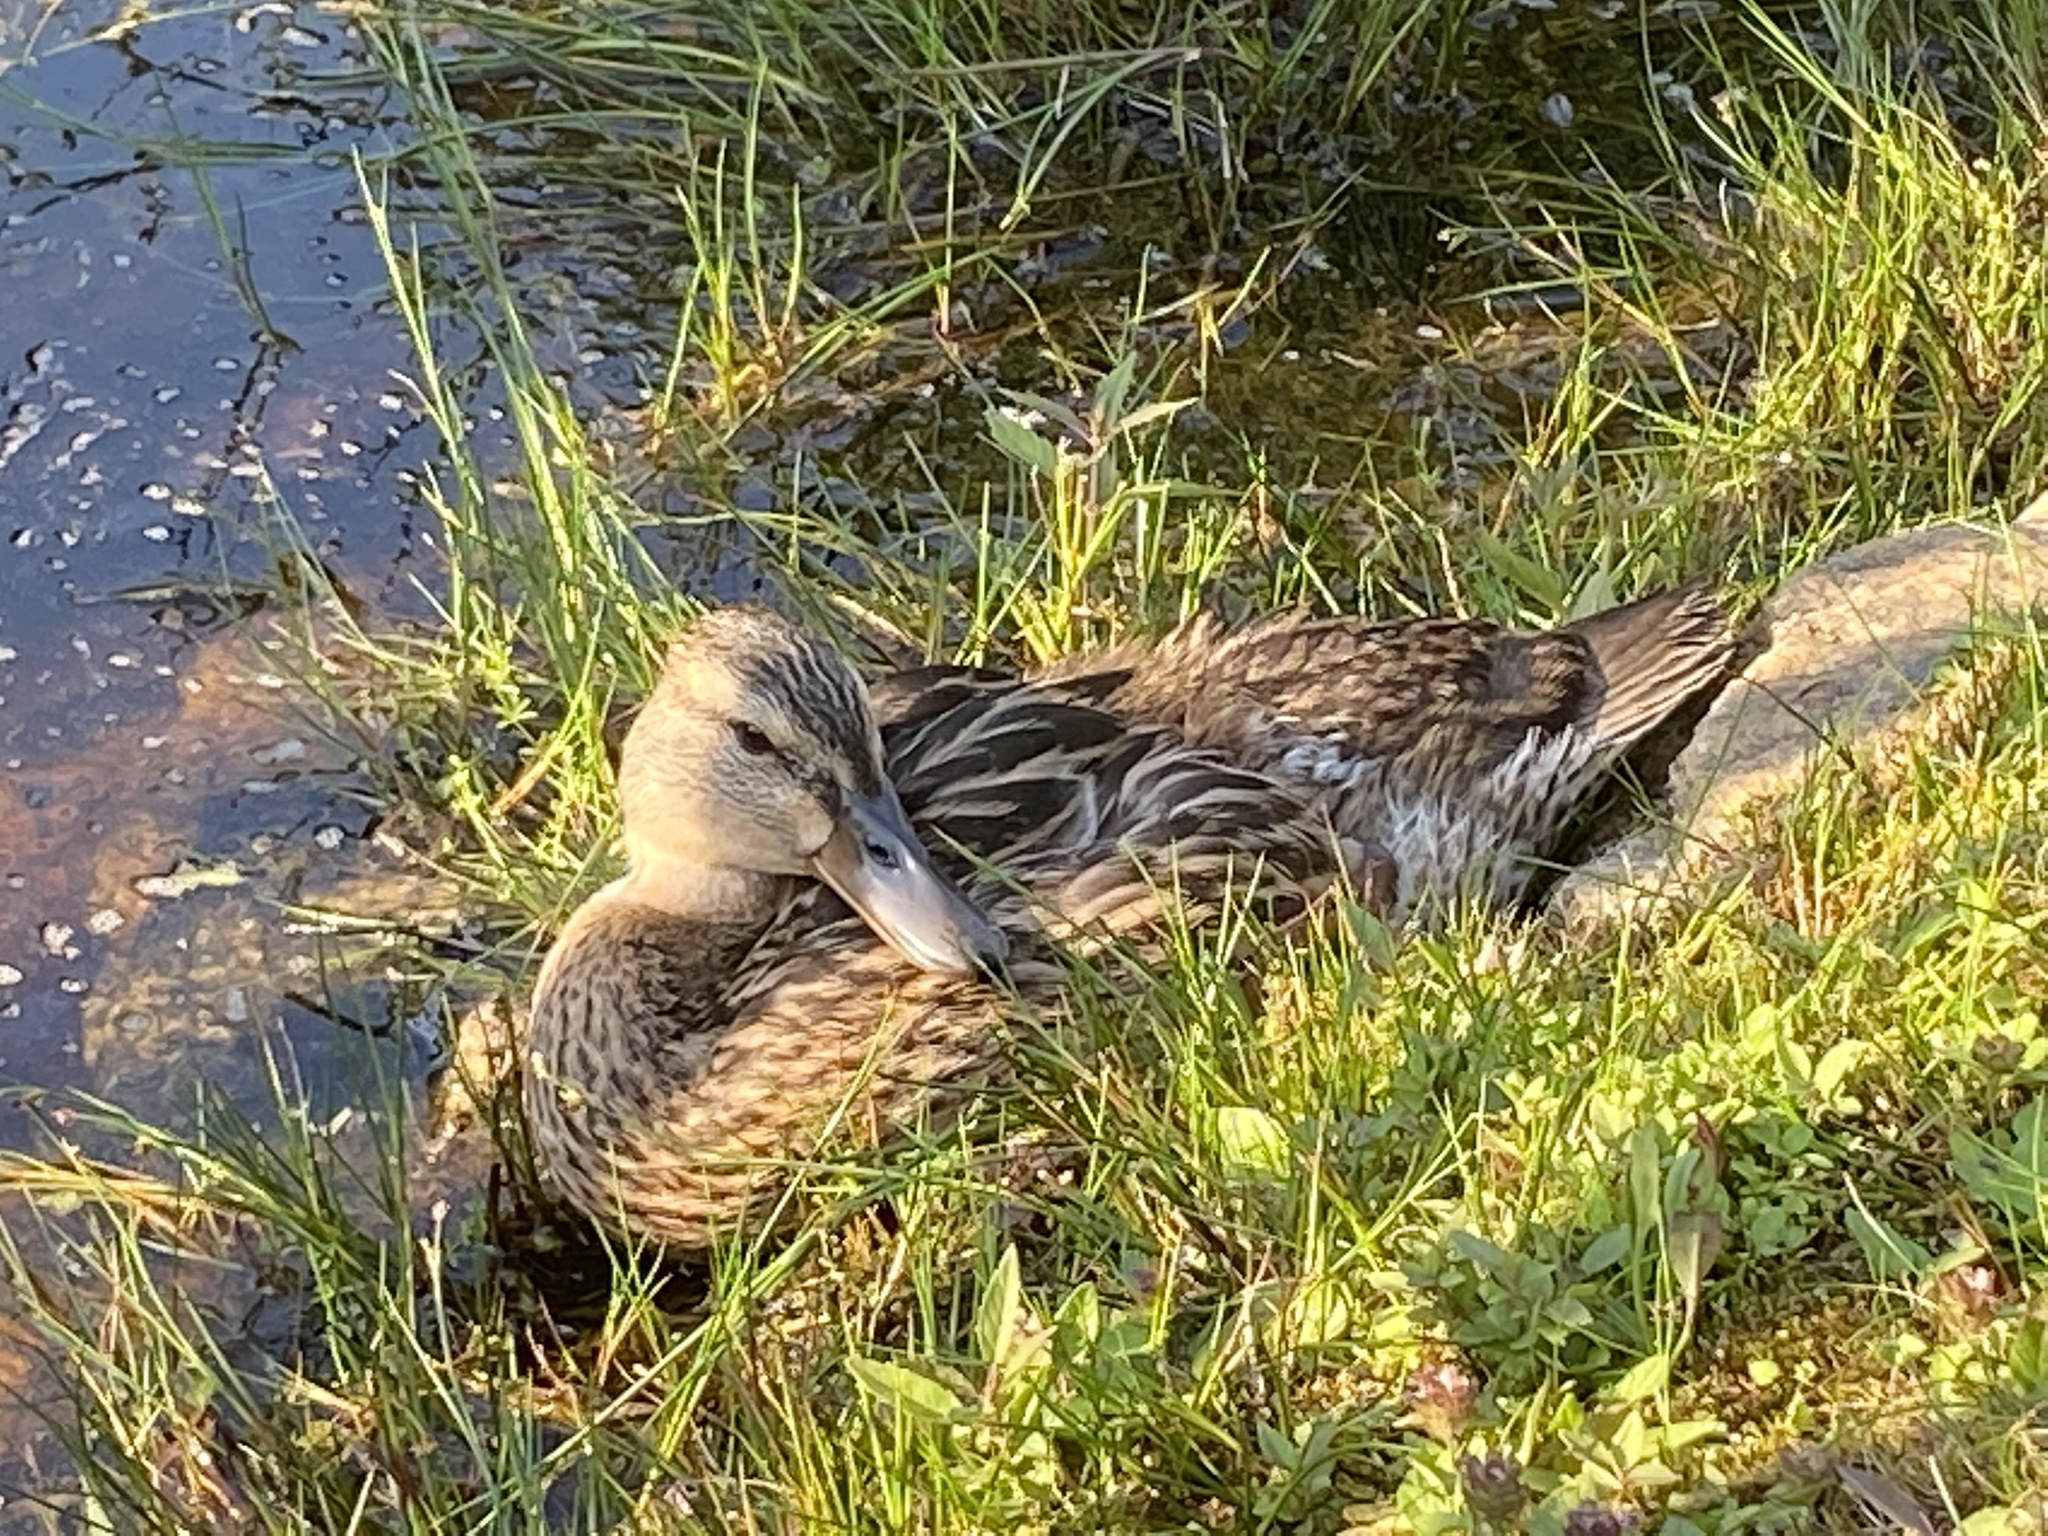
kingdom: Animalia
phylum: Chordata
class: Aves
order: Anseriformes
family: Anatidae
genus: Anas
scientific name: Anas platyrhynchos
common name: Mallard
